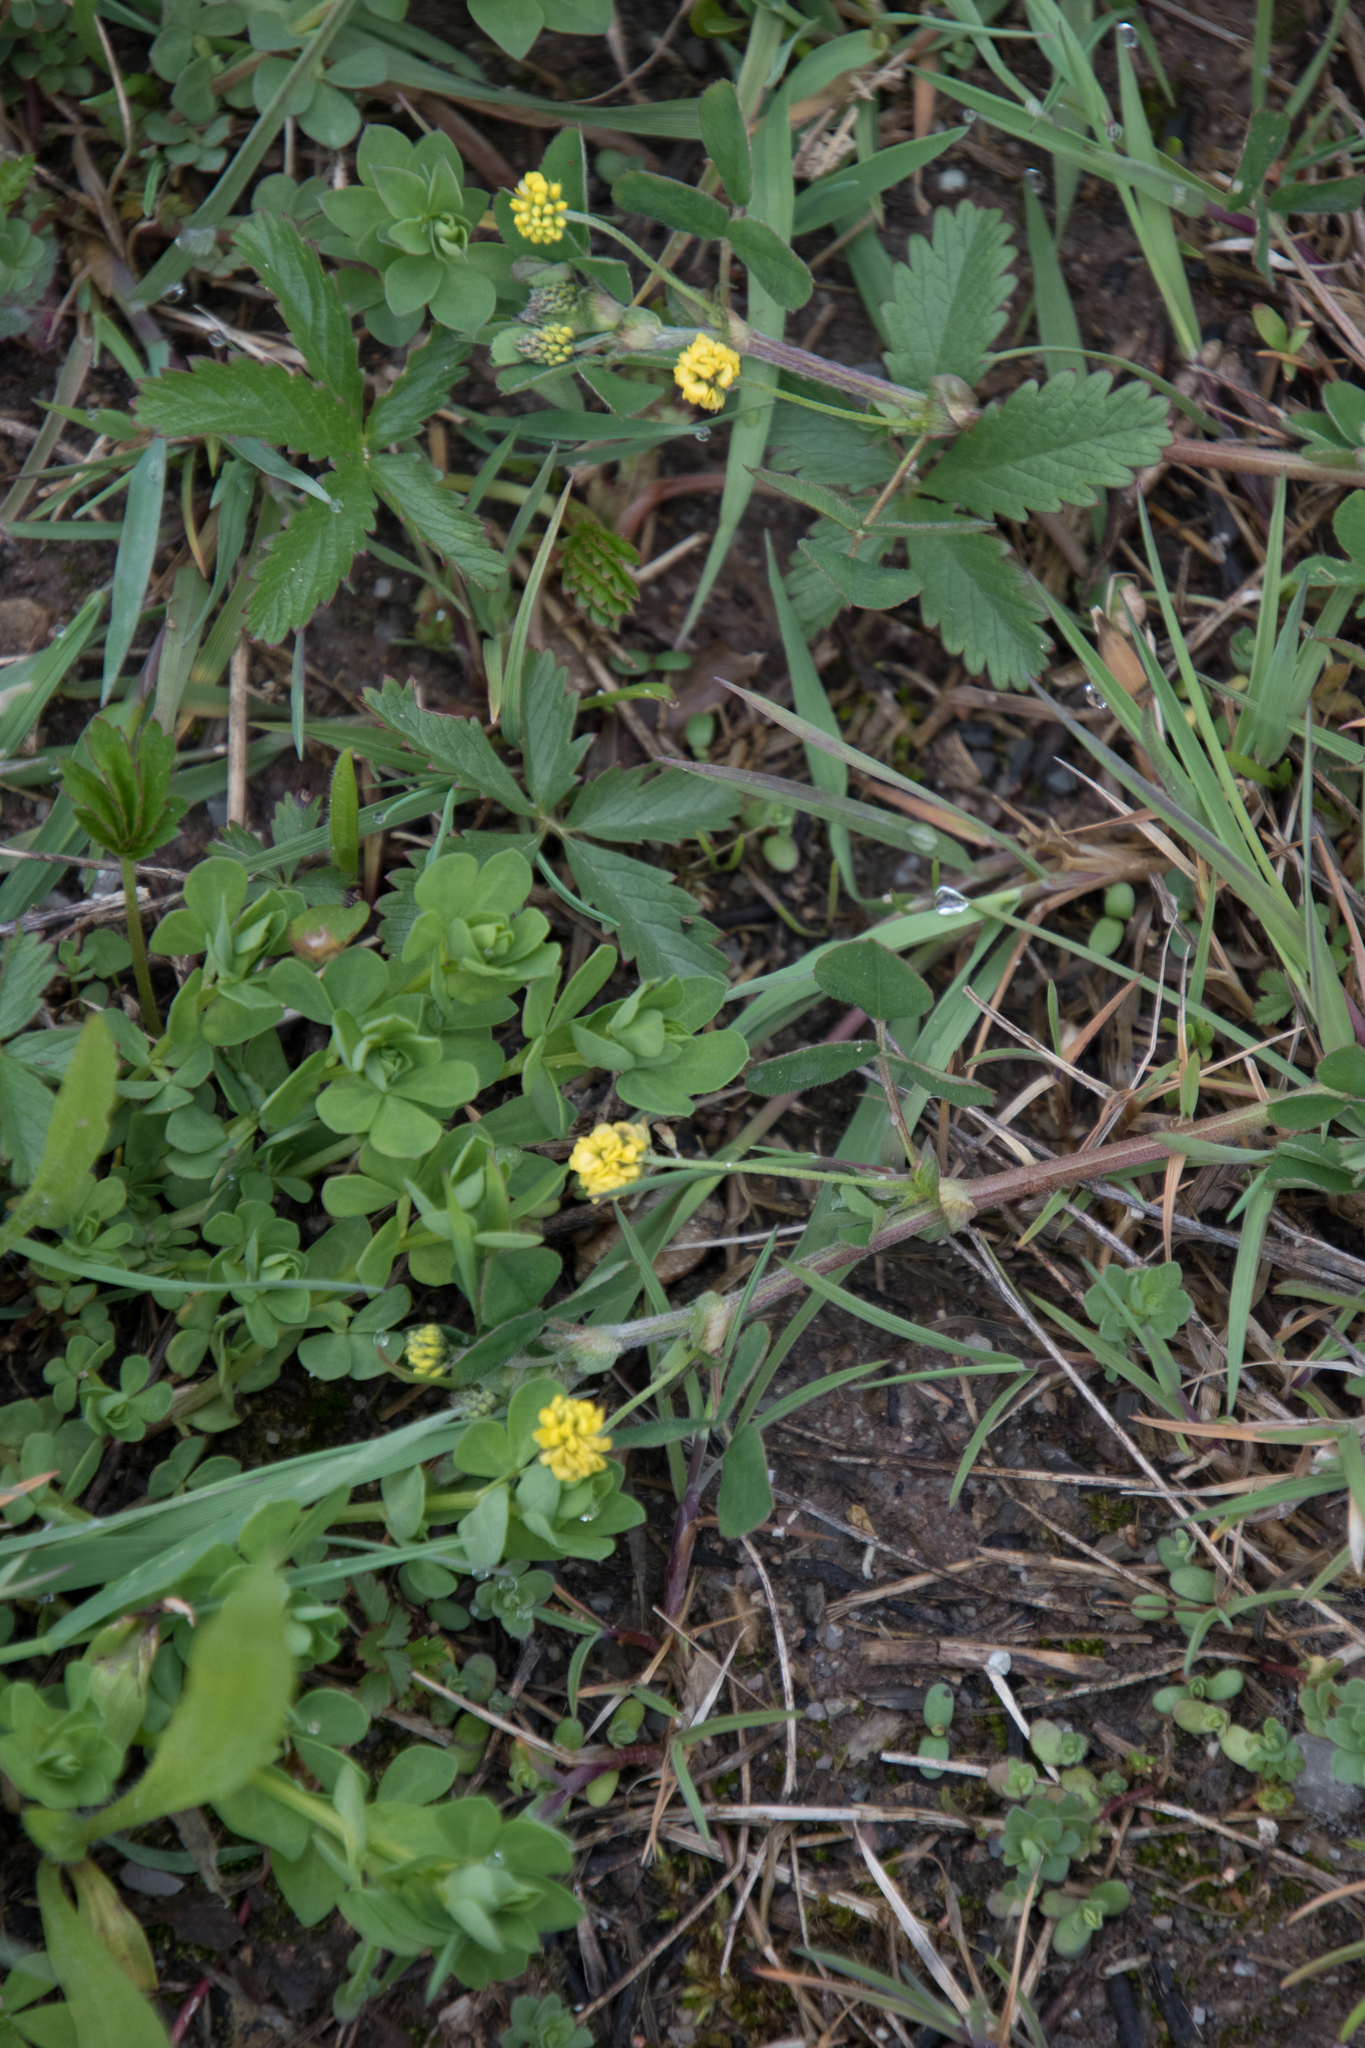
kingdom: Plantae
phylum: Tracheophyta
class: Magnoliopsida
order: Fabales
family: Fabaceae
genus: Medicago
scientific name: Medicago lupulina
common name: Black medick
